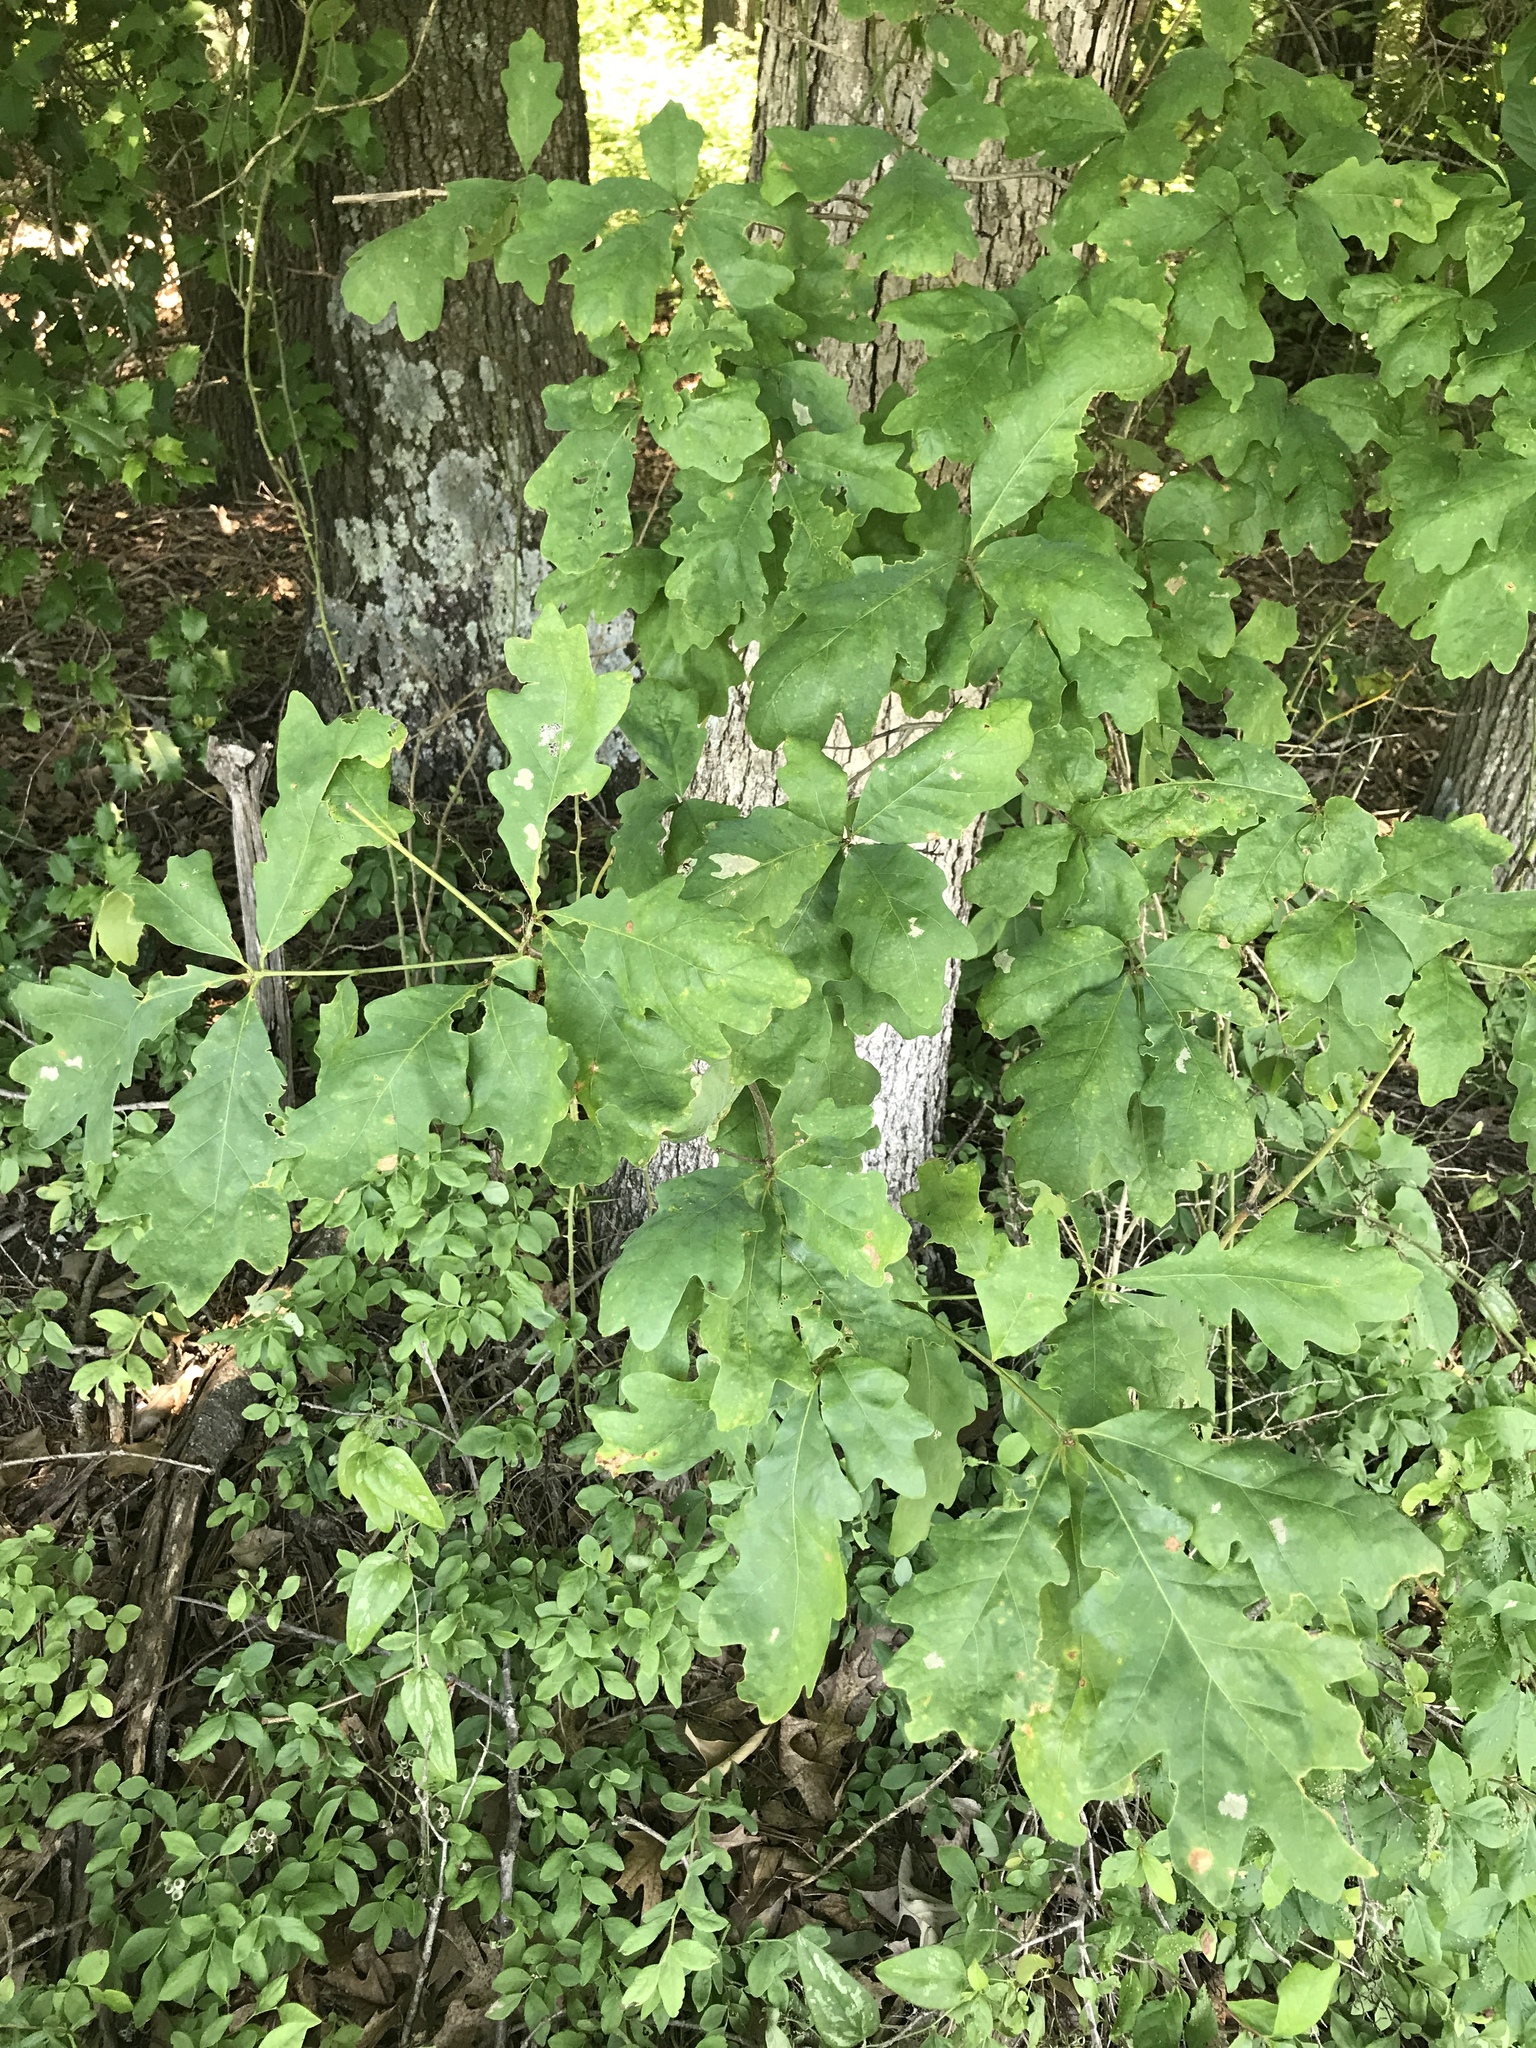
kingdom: Plantae
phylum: Tracheophyta
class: Magnoliopsida
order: Fagales
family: Fagaceae
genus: Quercus
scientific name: Quercus alba
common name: White oak
